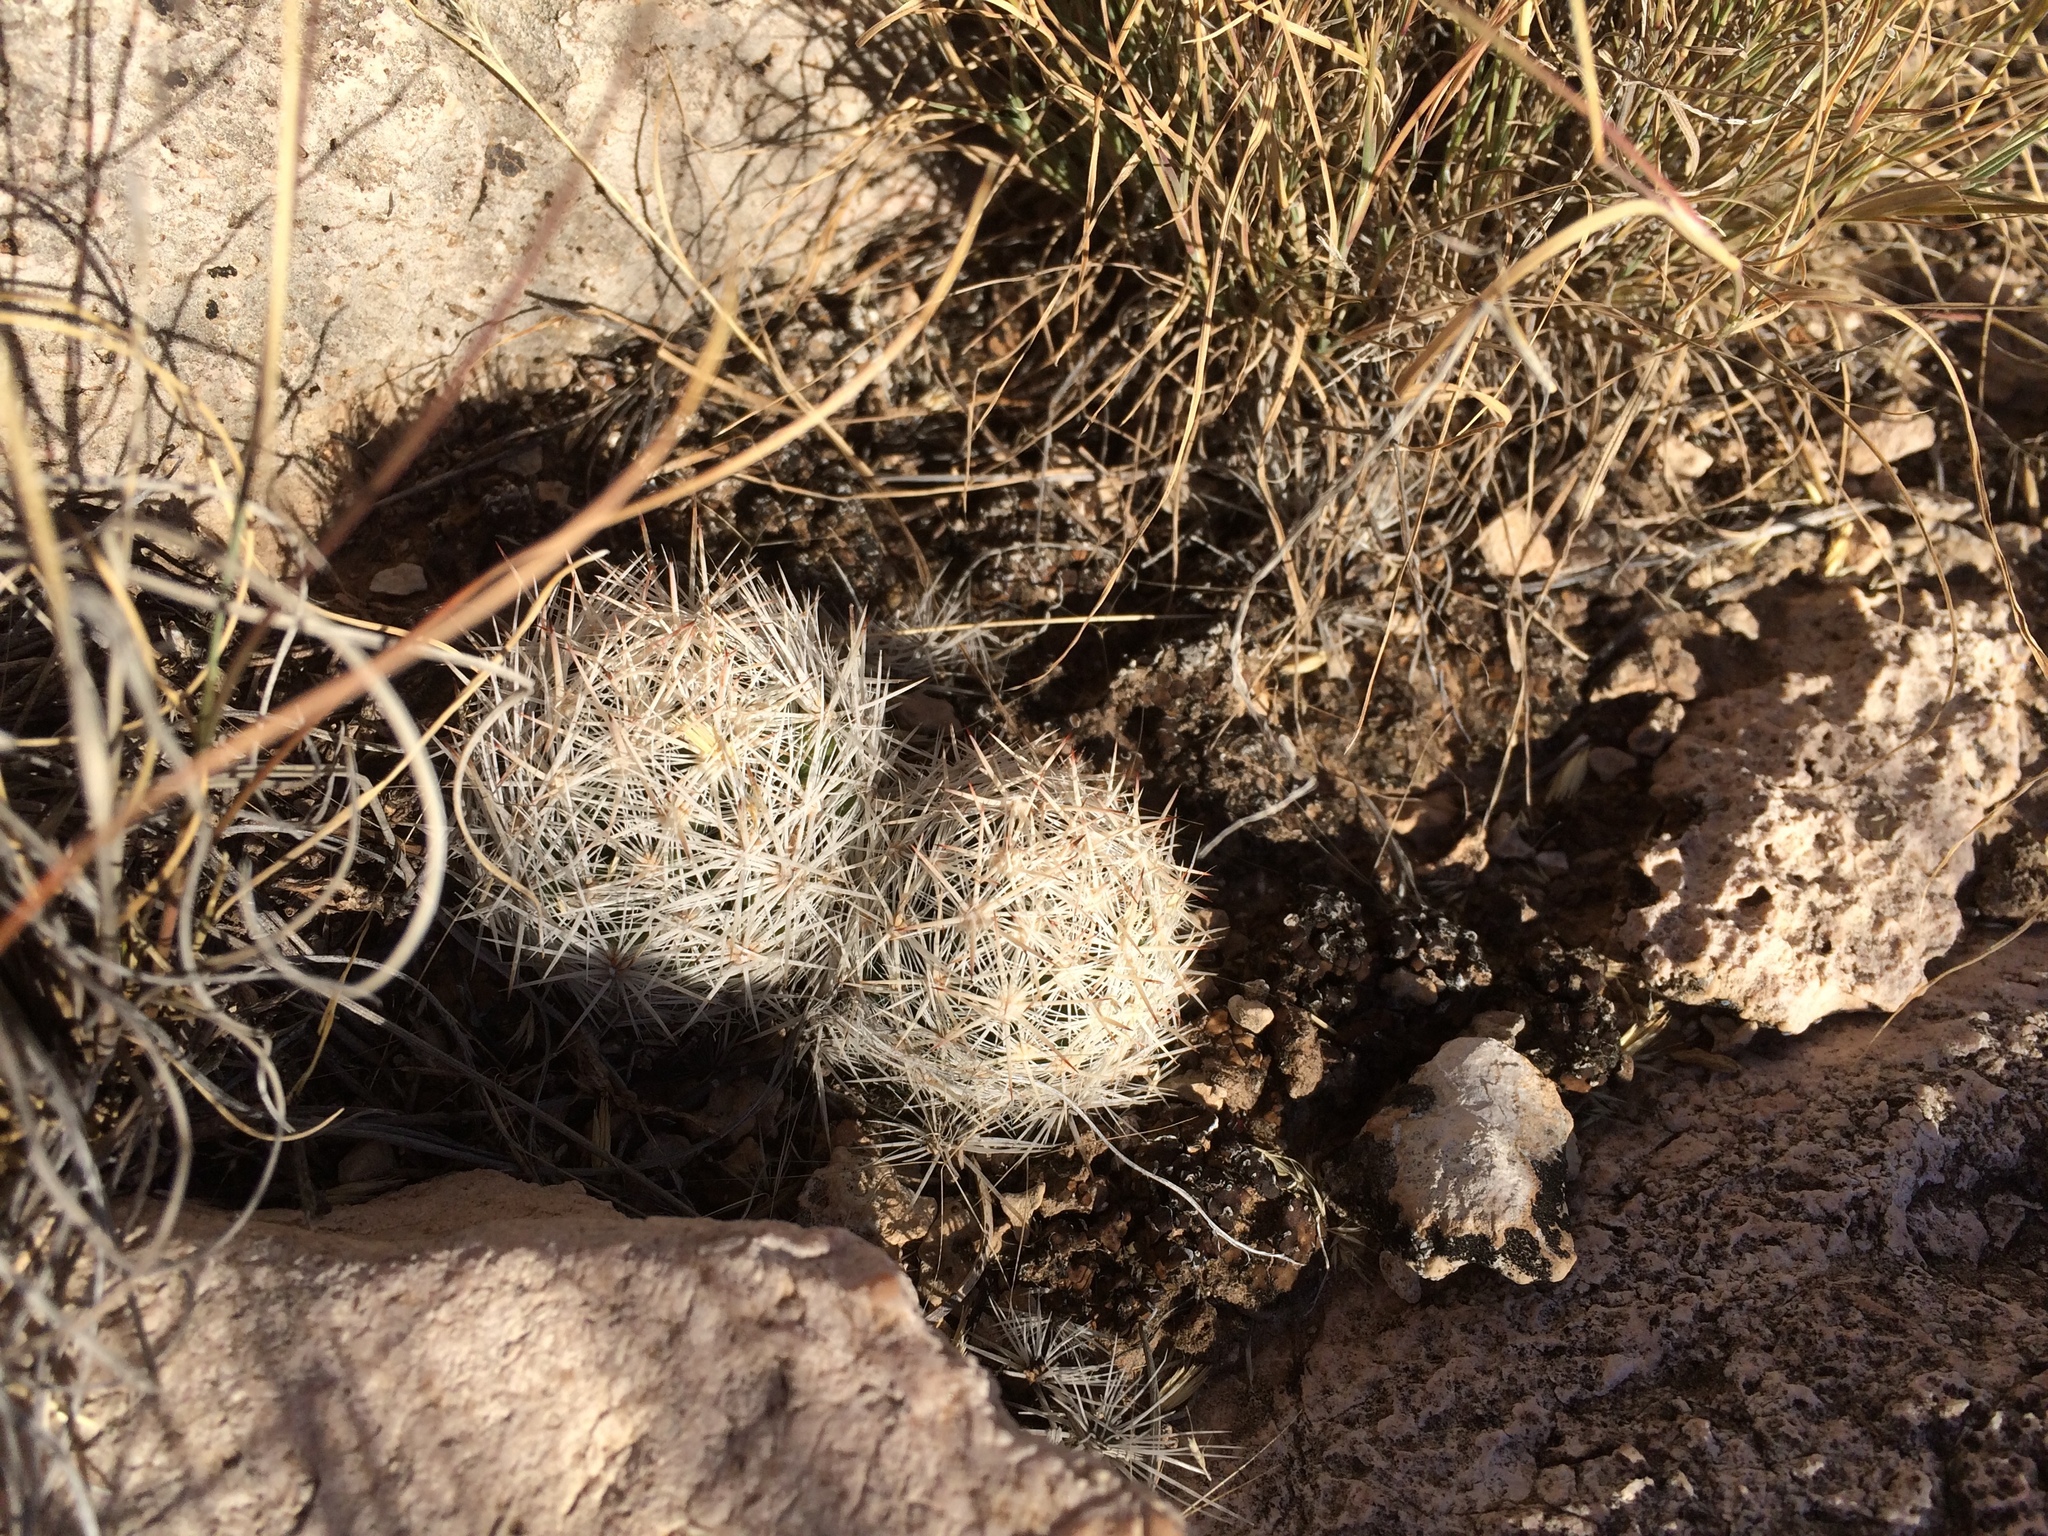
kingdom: Plantae
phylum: Tracheophyta
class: Magnoliopsida
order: Caryophyllales
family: Cactaceae
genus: Pelecyphora
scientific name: Pelecyphora tuberculosa
